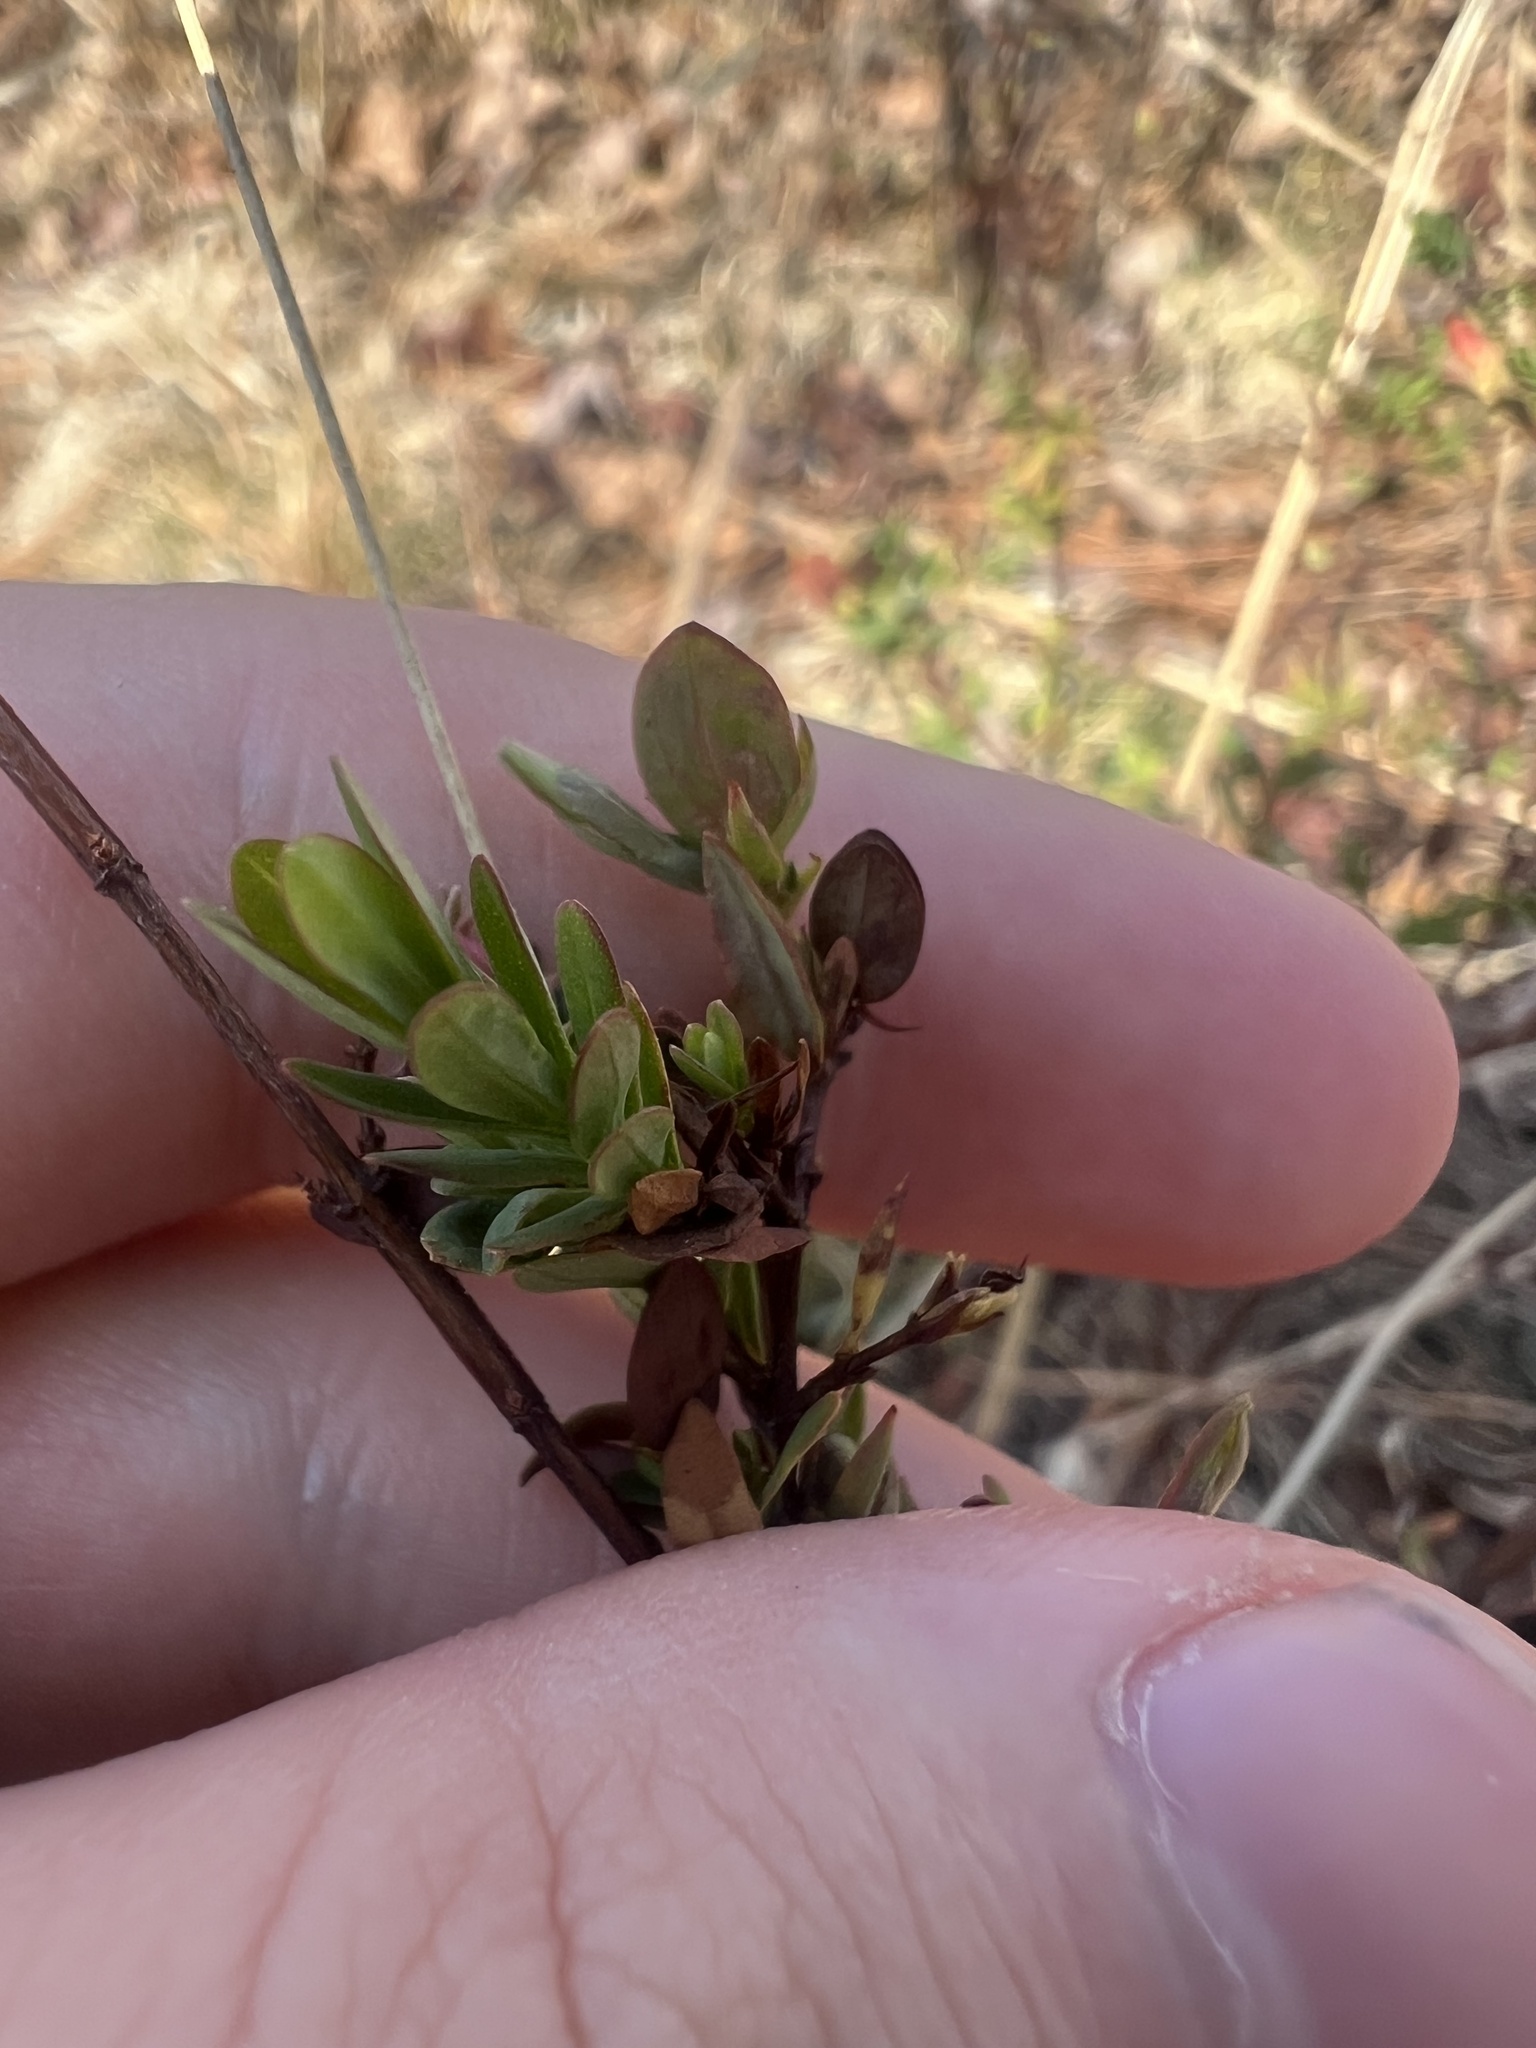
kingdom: Plantae
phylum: Tracheophyta
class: Magnoliopsida
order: Malpighiales
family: Hypericaceae
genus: Hypericum
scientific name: Hypericum crux-andreae
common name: St.-peter's-wort
